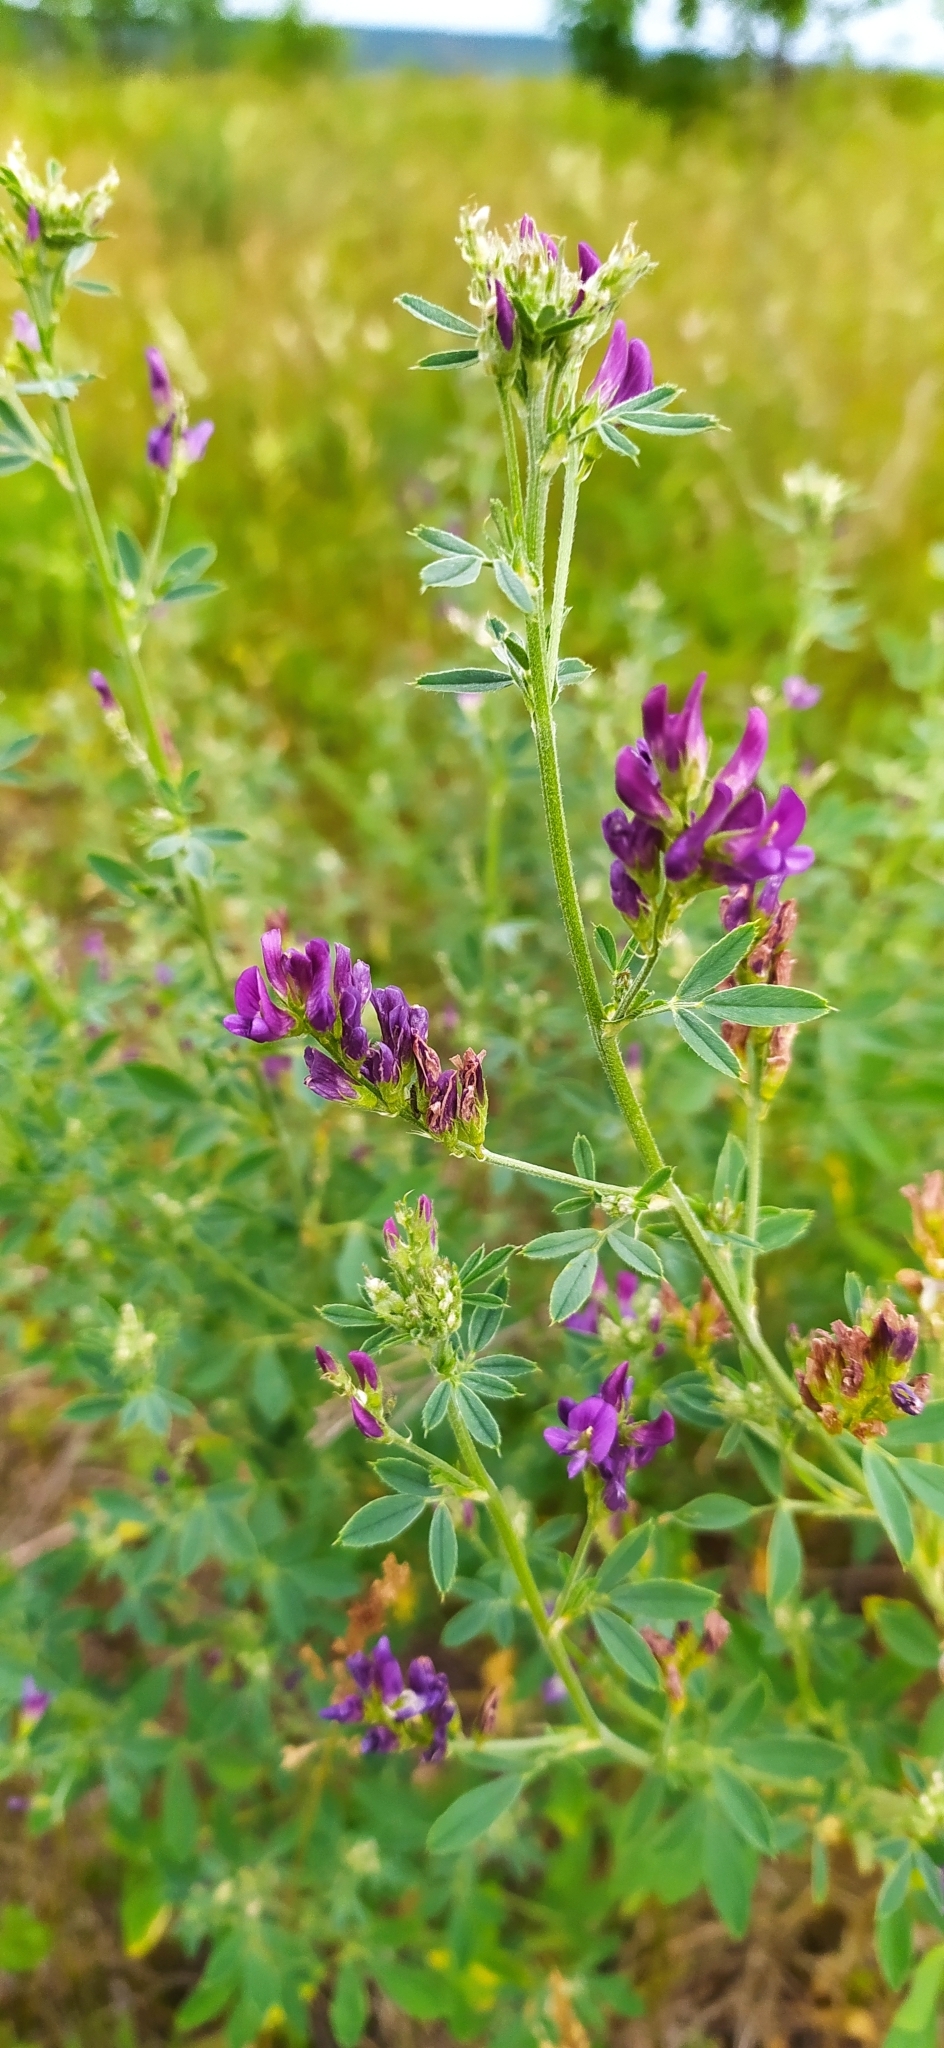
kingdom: Plantae
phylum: Tracheophyta
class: Magnoliopsida
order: Fabales
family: Fabaceae
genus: Medicago
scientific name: Medicago varia
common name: Sand lucerne
